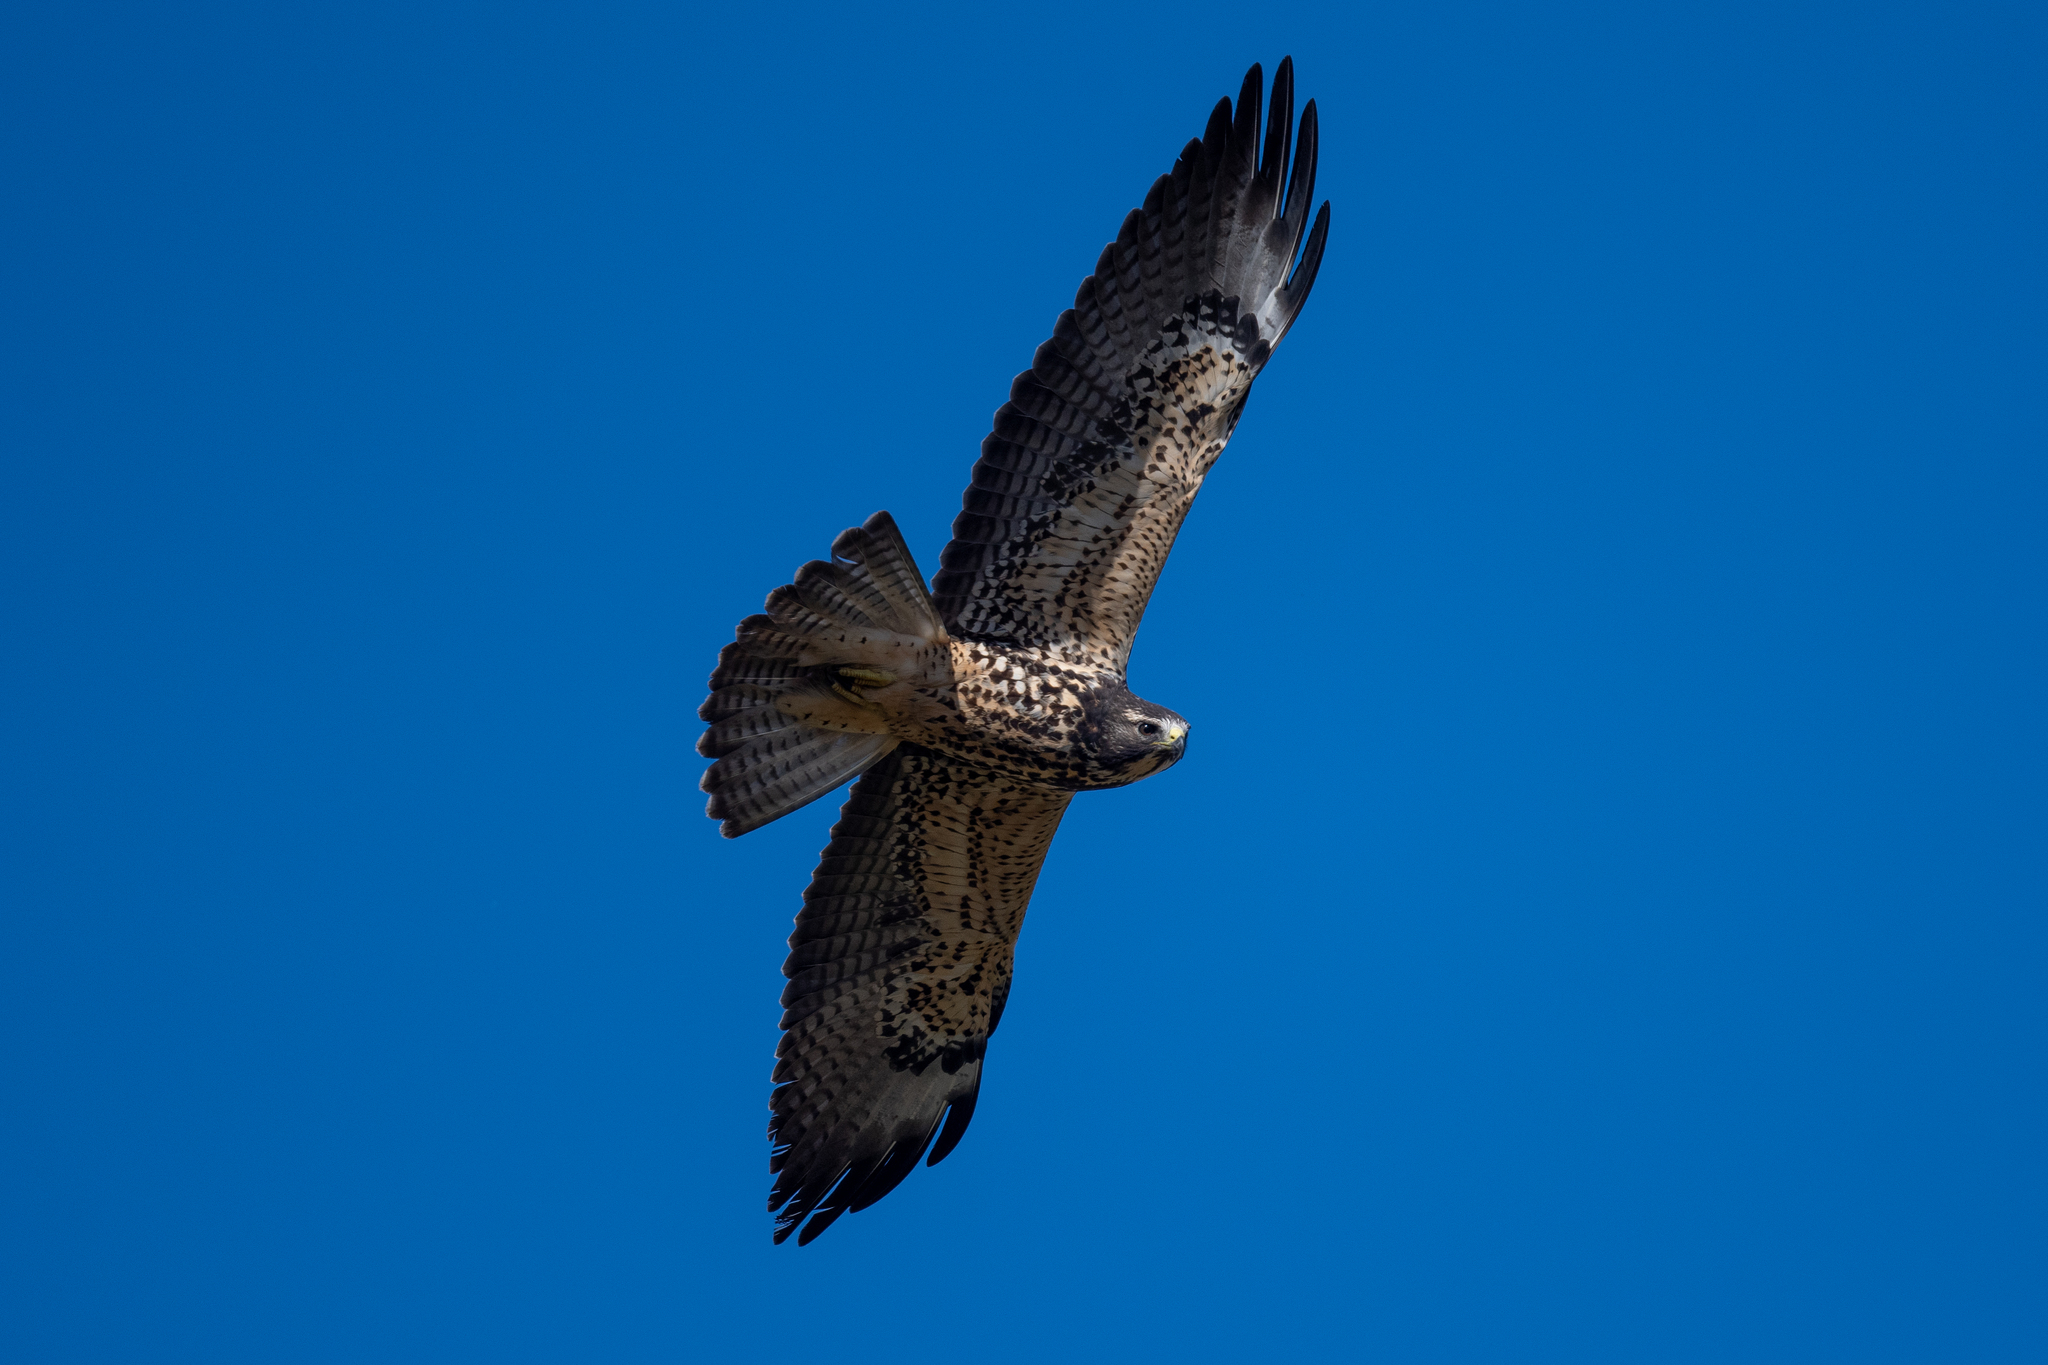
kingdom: Animalia
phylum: Chordata
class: Aves
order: Accipitriformes
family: Accipitridae
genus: Buteo
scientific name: Buteo swainsoni
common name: Swainson's hawk
